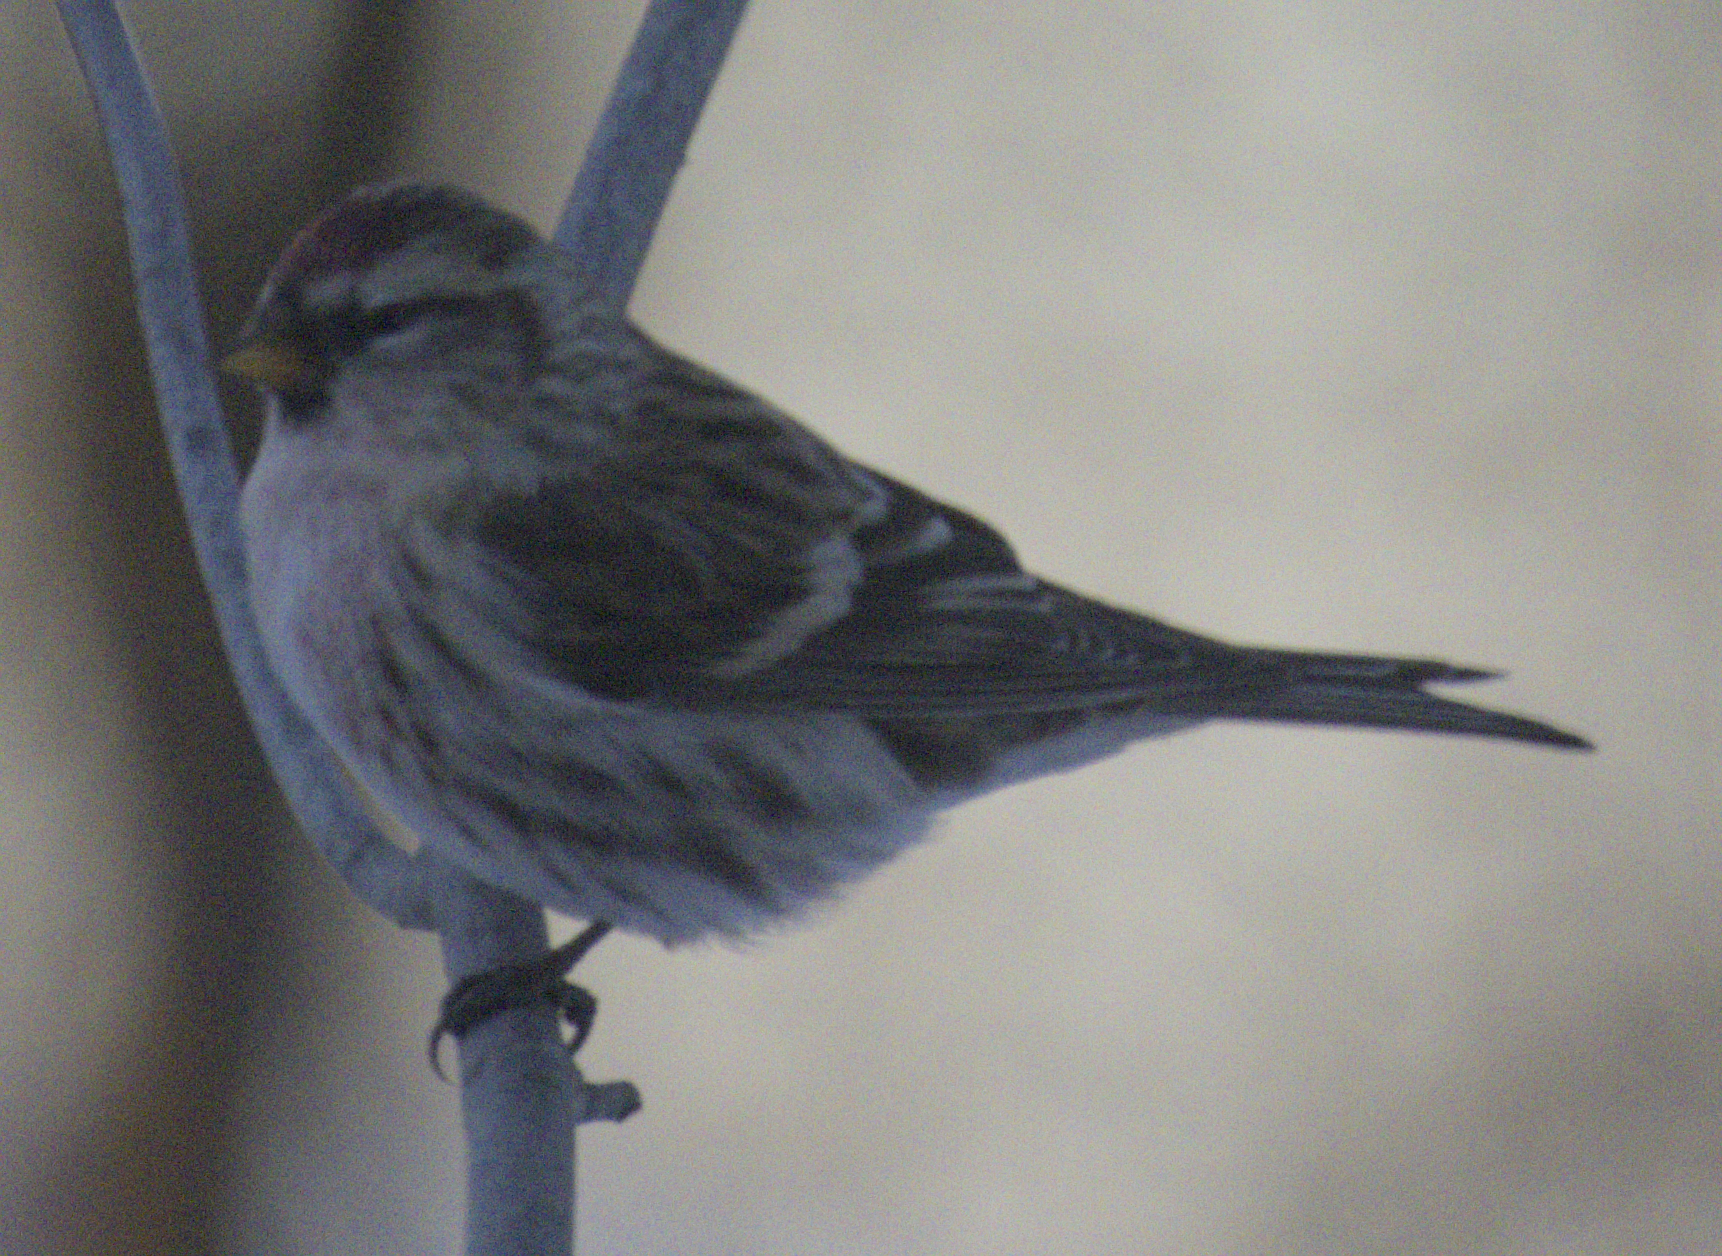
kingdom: Animalia
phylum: Chordata
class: Aves
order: Passeriformes
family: Fringillidae
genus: Acanthis
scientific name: Acanthis flammea
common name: Common redpoll
